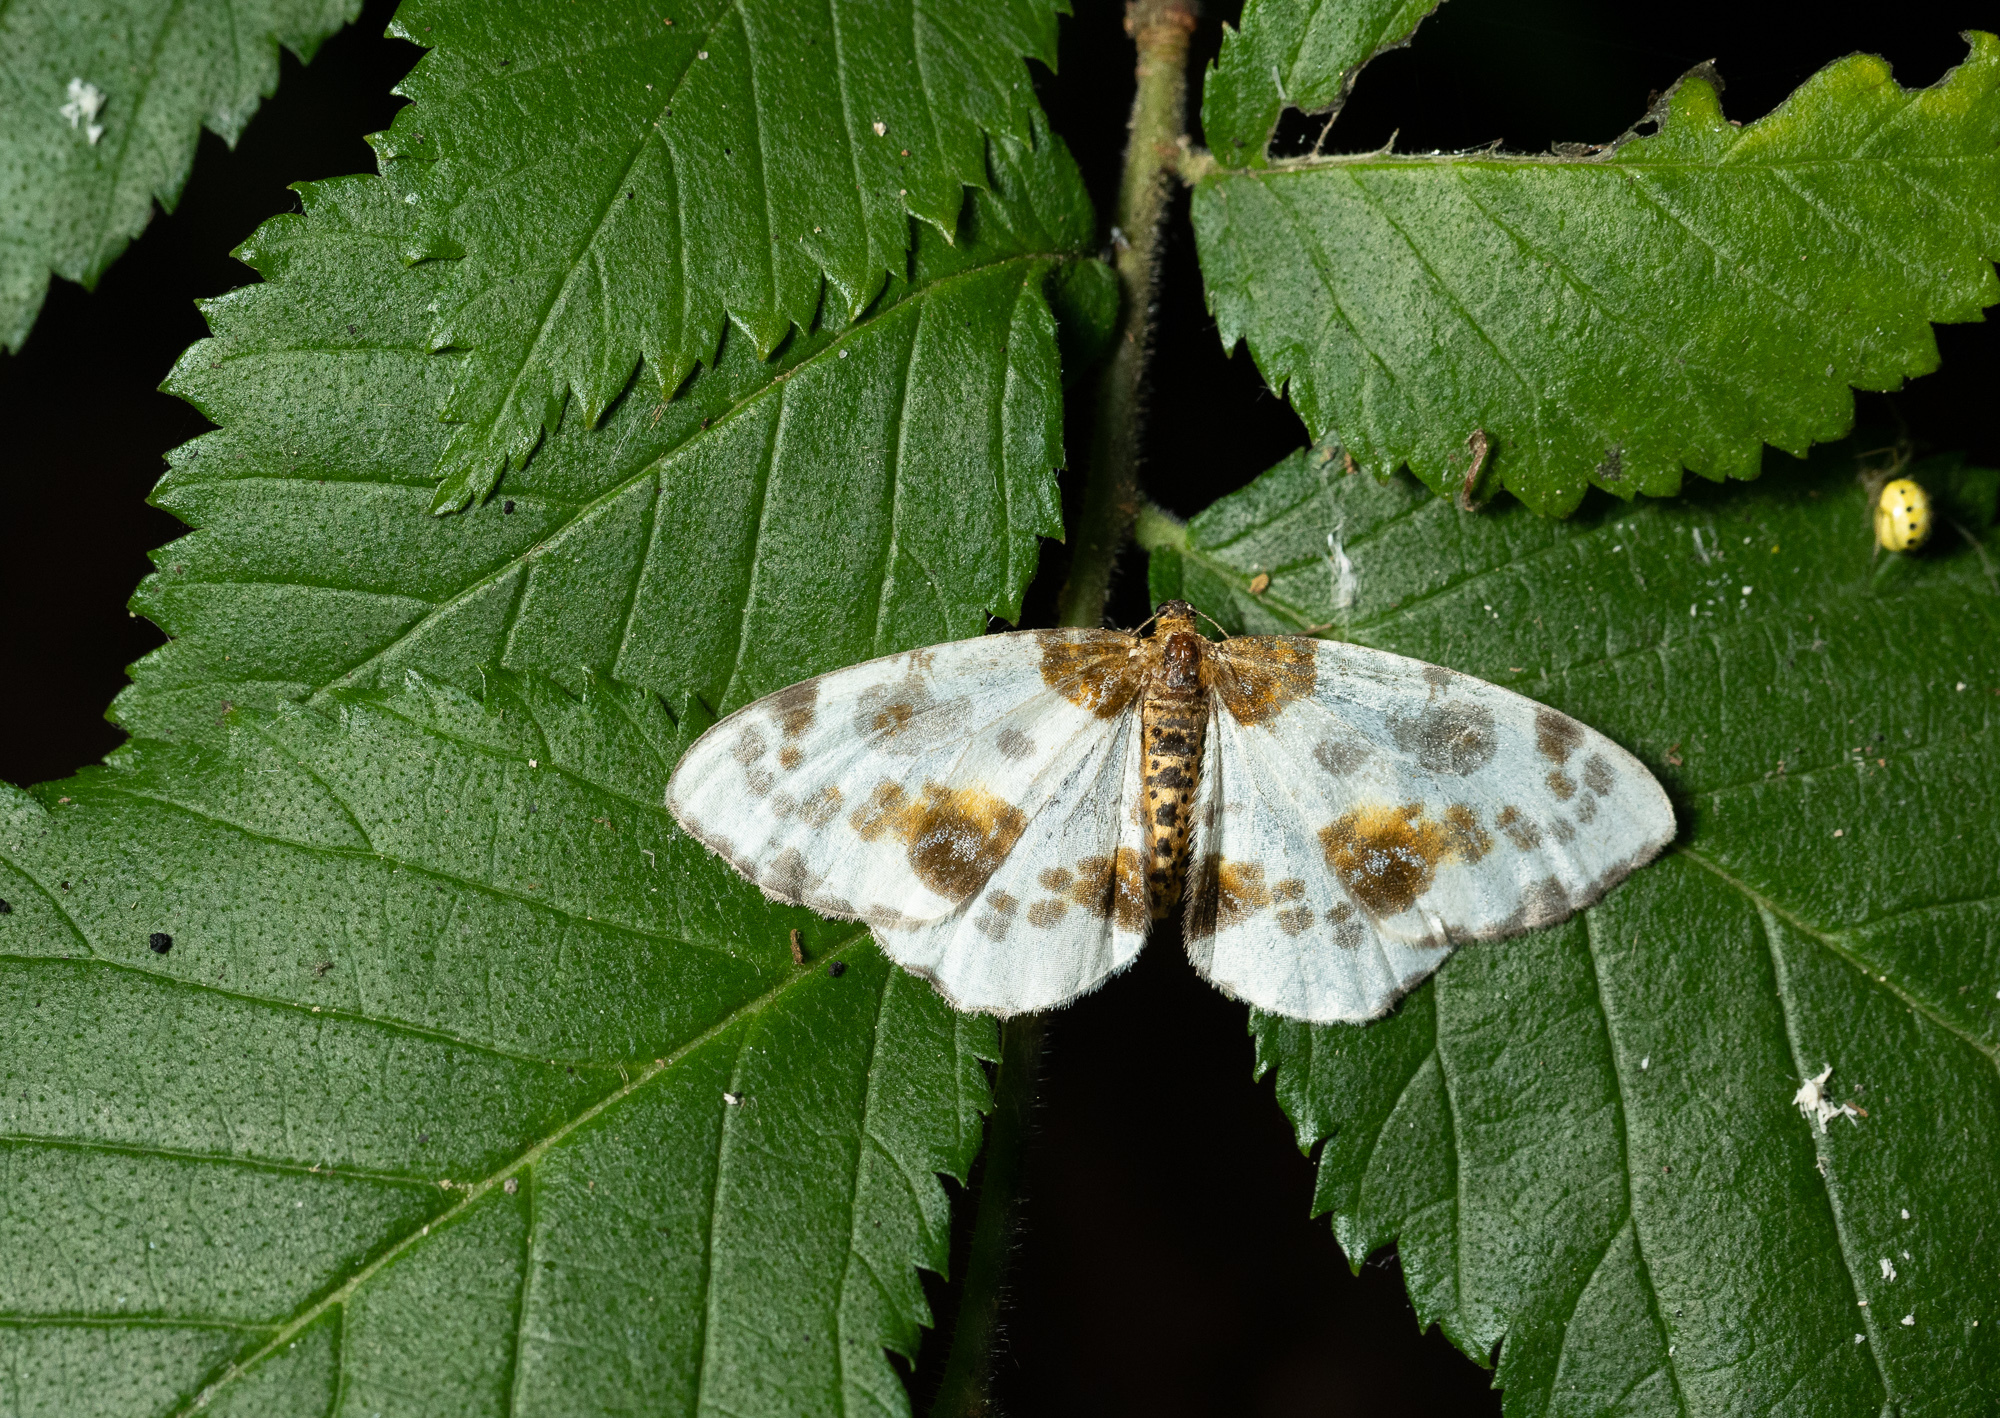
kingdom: Animalia
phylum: Arthropoda
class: Insecta
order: Lepidoptera
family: Geometridae
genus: Abraxas
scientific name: Abraxas sylvata
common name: Clouded magpie
